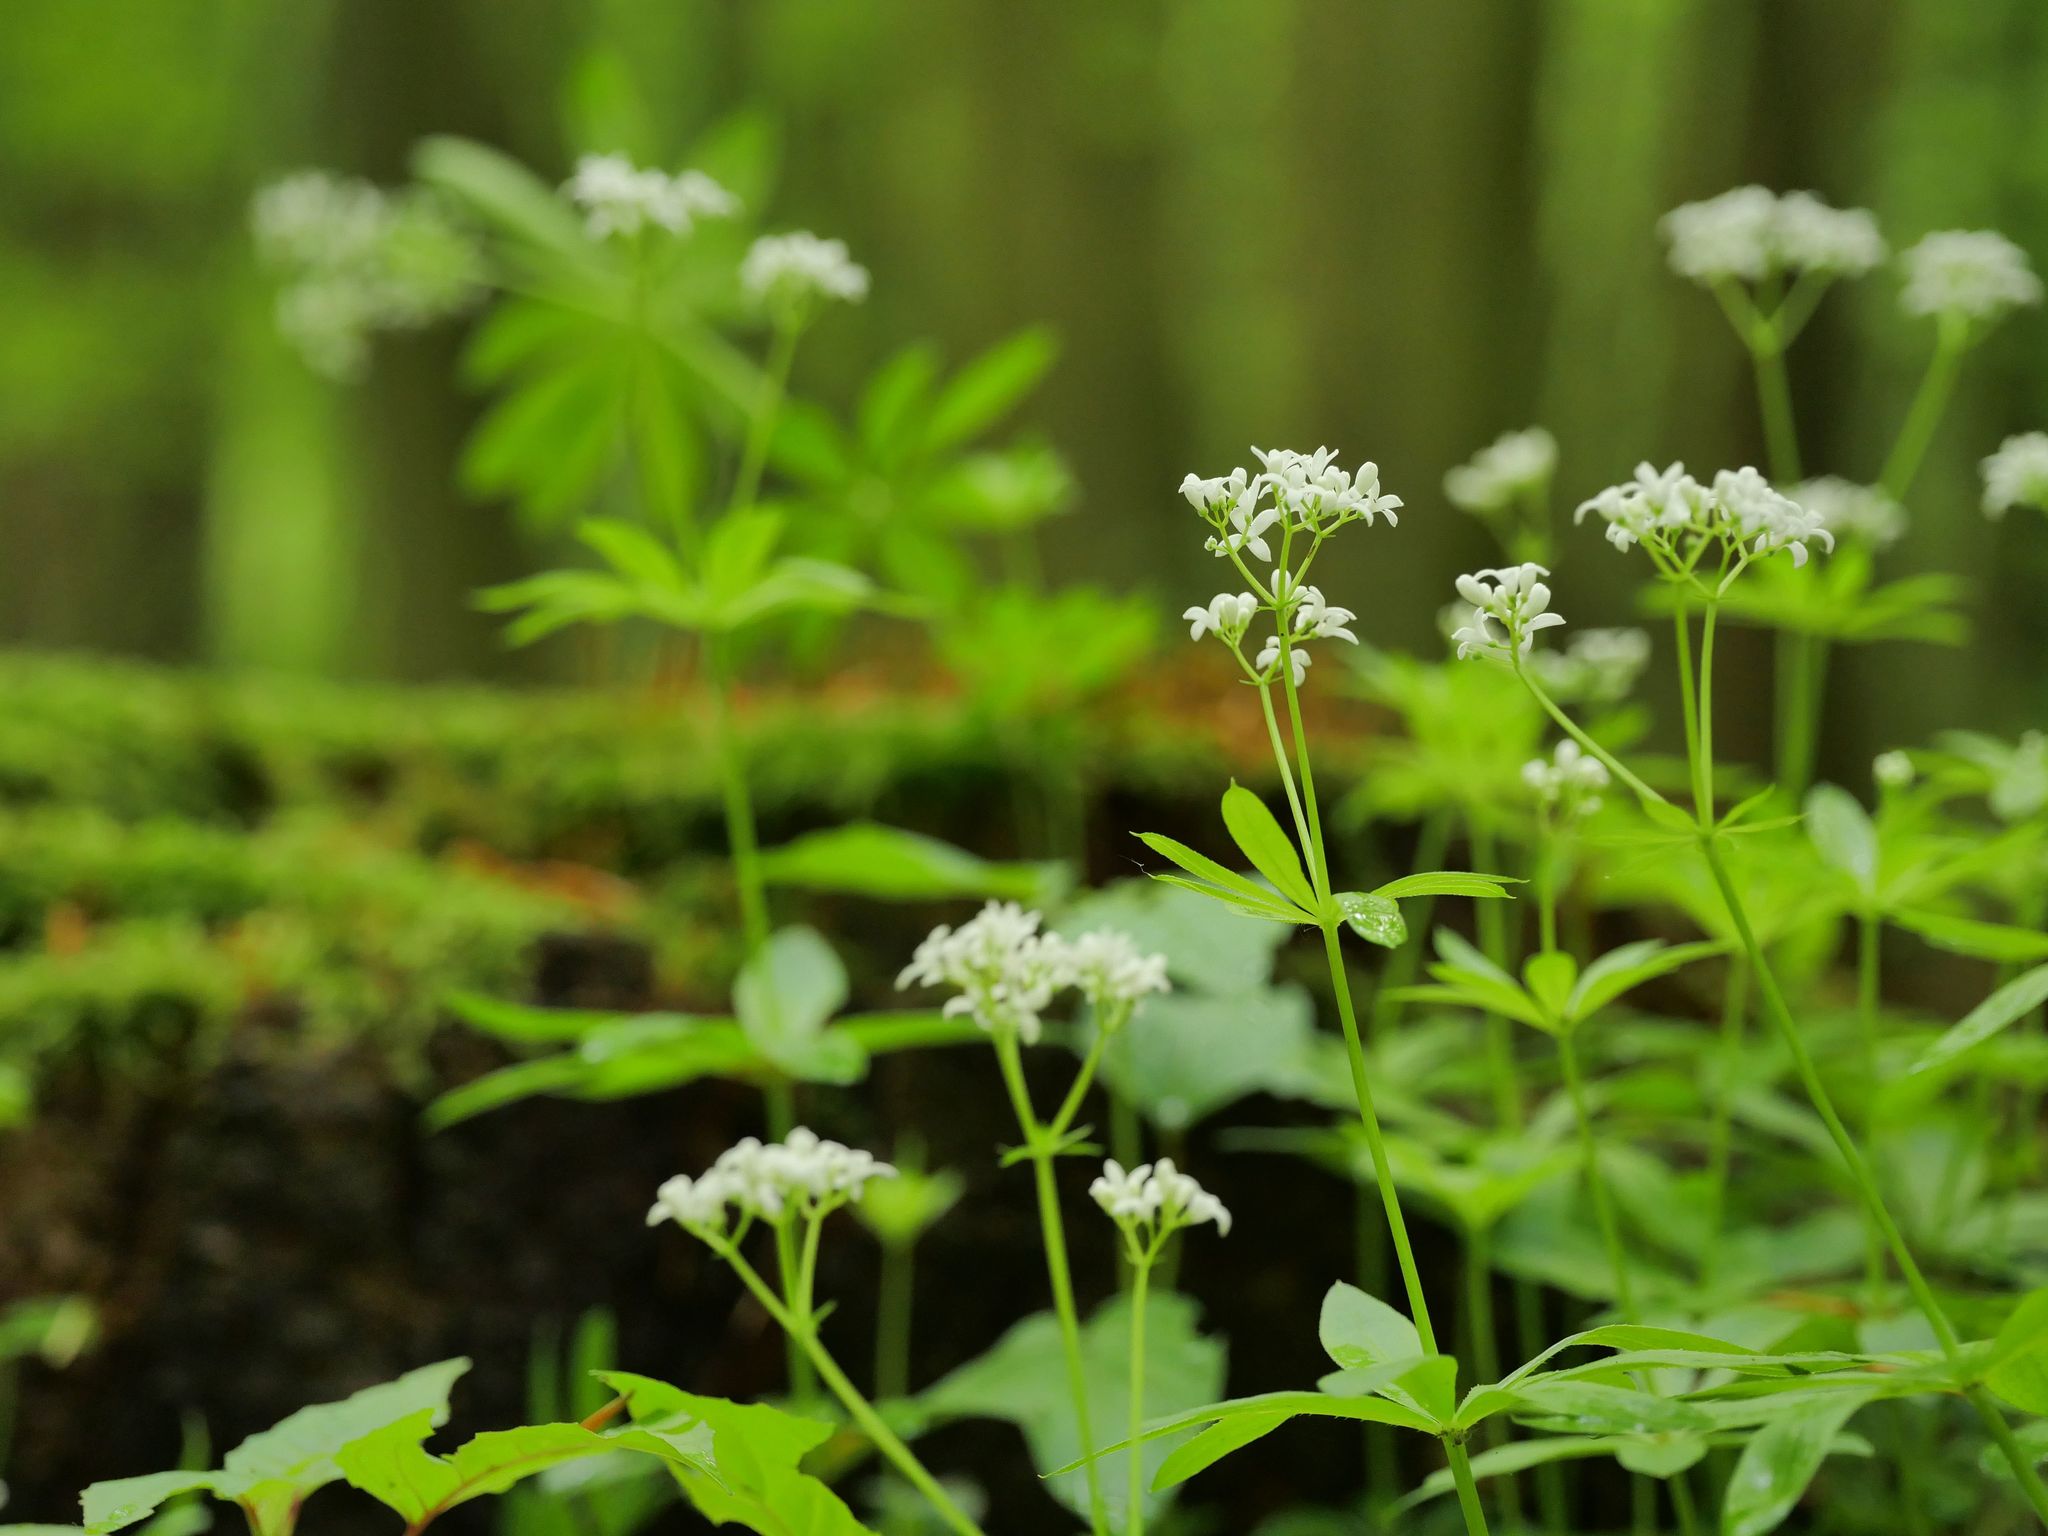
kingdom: Plantae
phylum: Tracheophyta
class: Magnoliopsida
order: Gentianales
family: Rubiaceae
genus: Galium
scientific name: Galium odoratum
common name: Sweet woodruff
